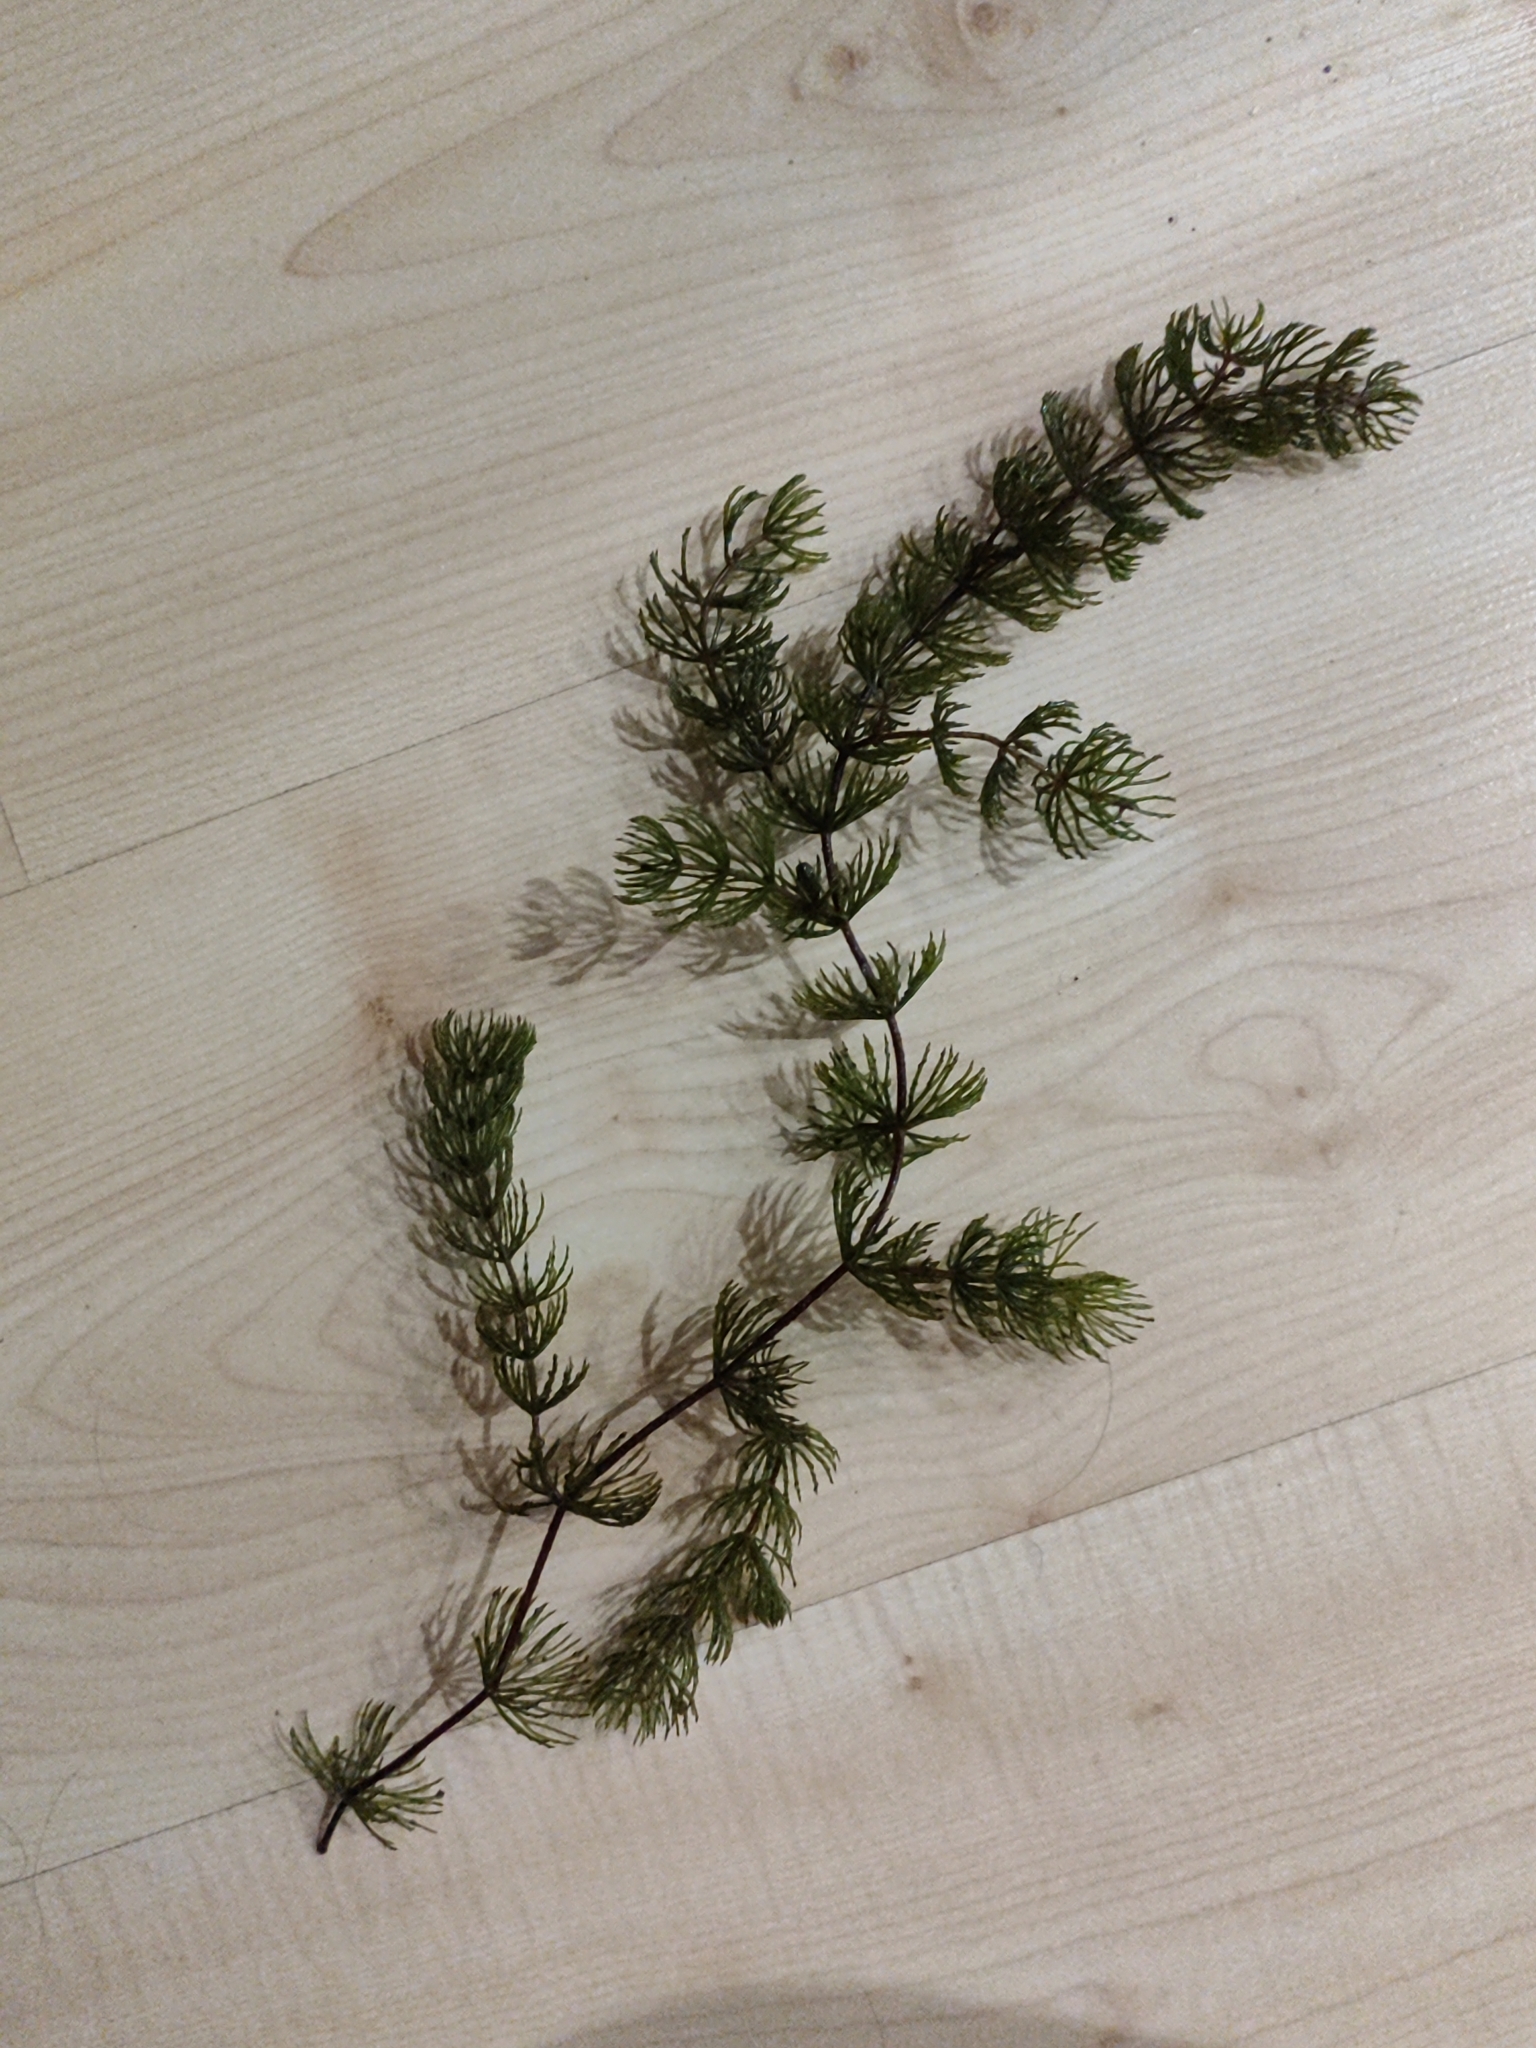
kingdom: Plantae
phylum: Tracheophyta
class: Magnoliopsida
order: Ceratophyllales
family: Ceratophyllaceae
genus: Ceratophyllum
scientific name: Ceratophyllum demersum
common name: Rigid hornwort
